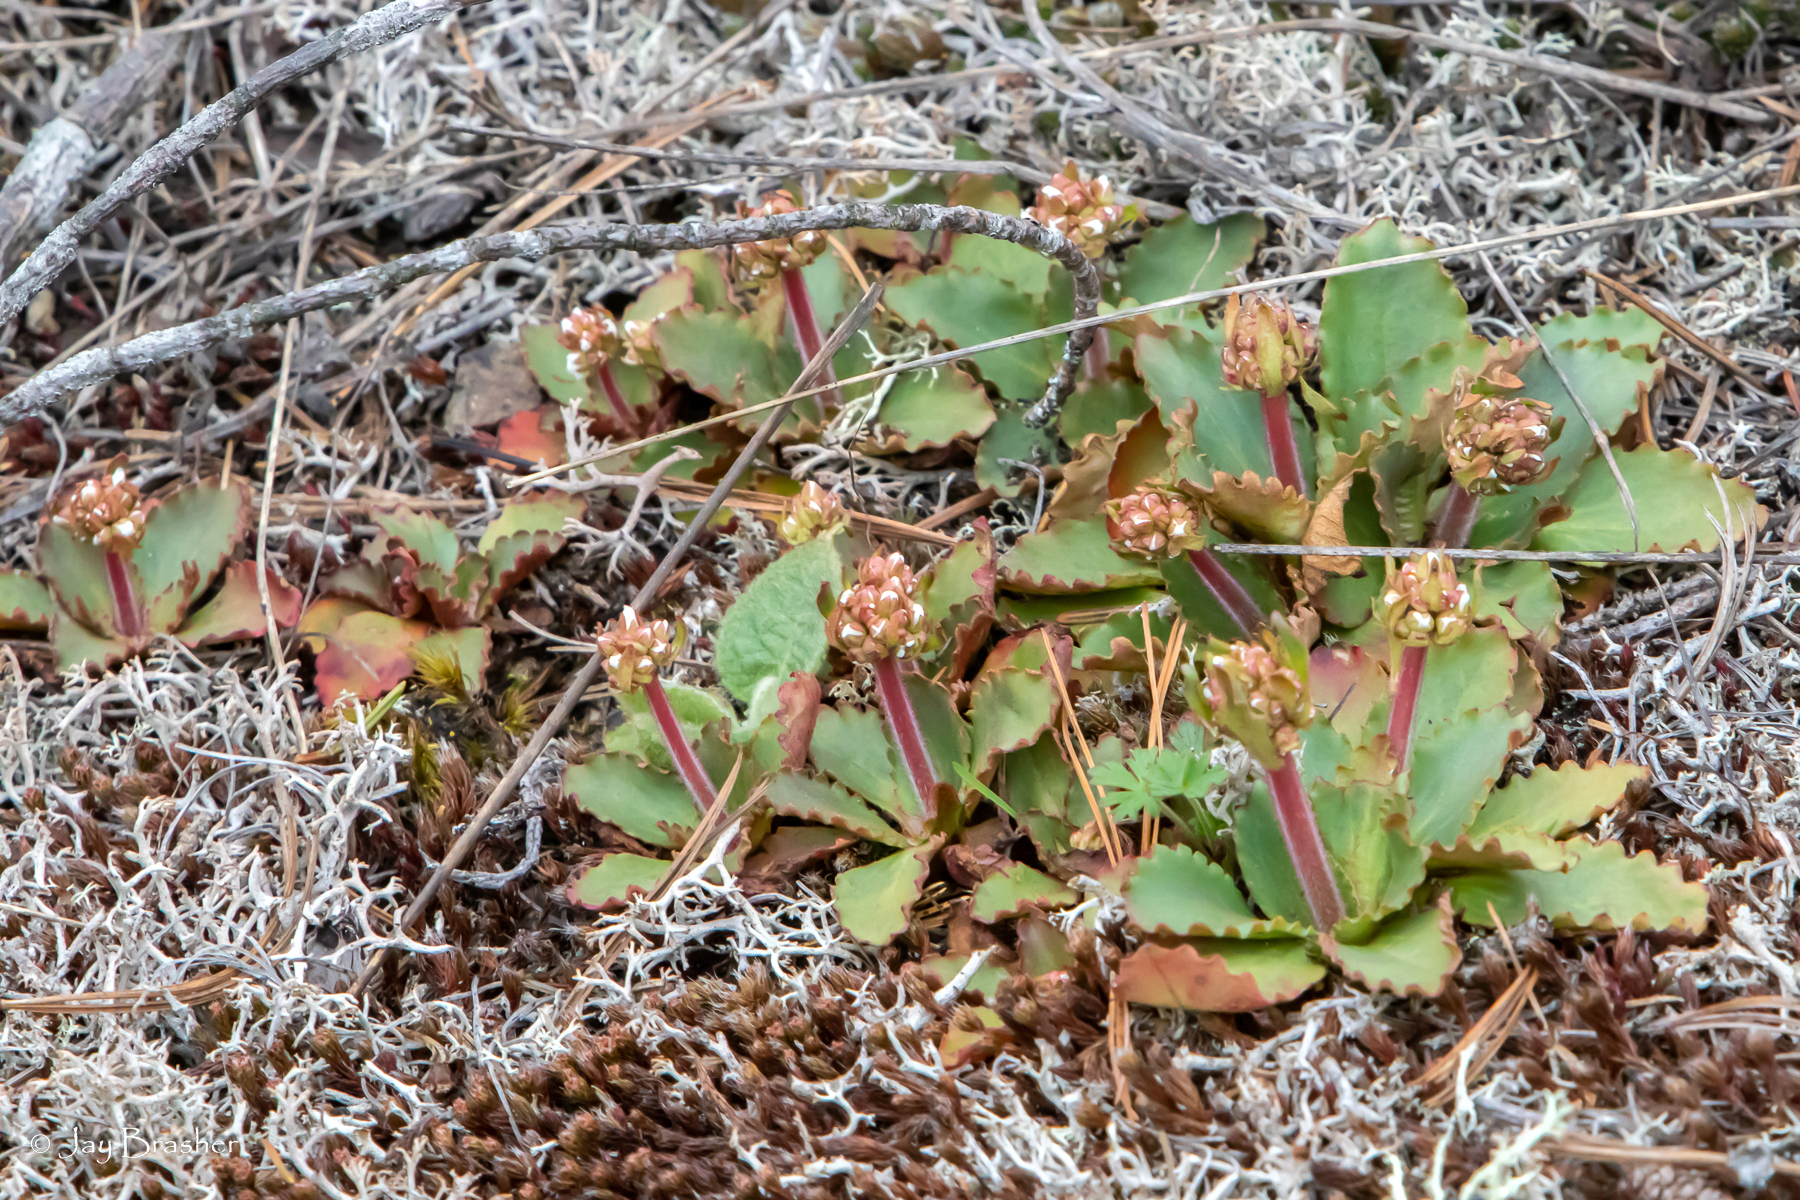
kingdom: Plantae
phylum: Tracheophyta
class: Magnoliopsida
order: Saxifragales
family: Saxifragaceae
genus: Micranthes
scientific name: Micranthes virginiensis
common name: Early saxifrage
